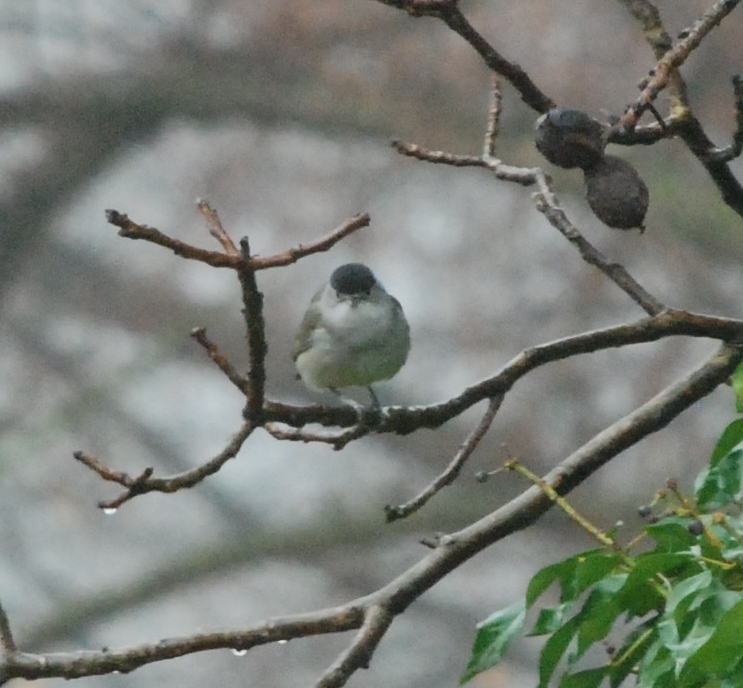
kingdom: Animalia
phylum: Chordata
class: Aves
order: Passeriformes
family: Sylviidae
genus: Sylvia
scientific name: Sylvia atricapilla
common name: Eurasian blackcap
